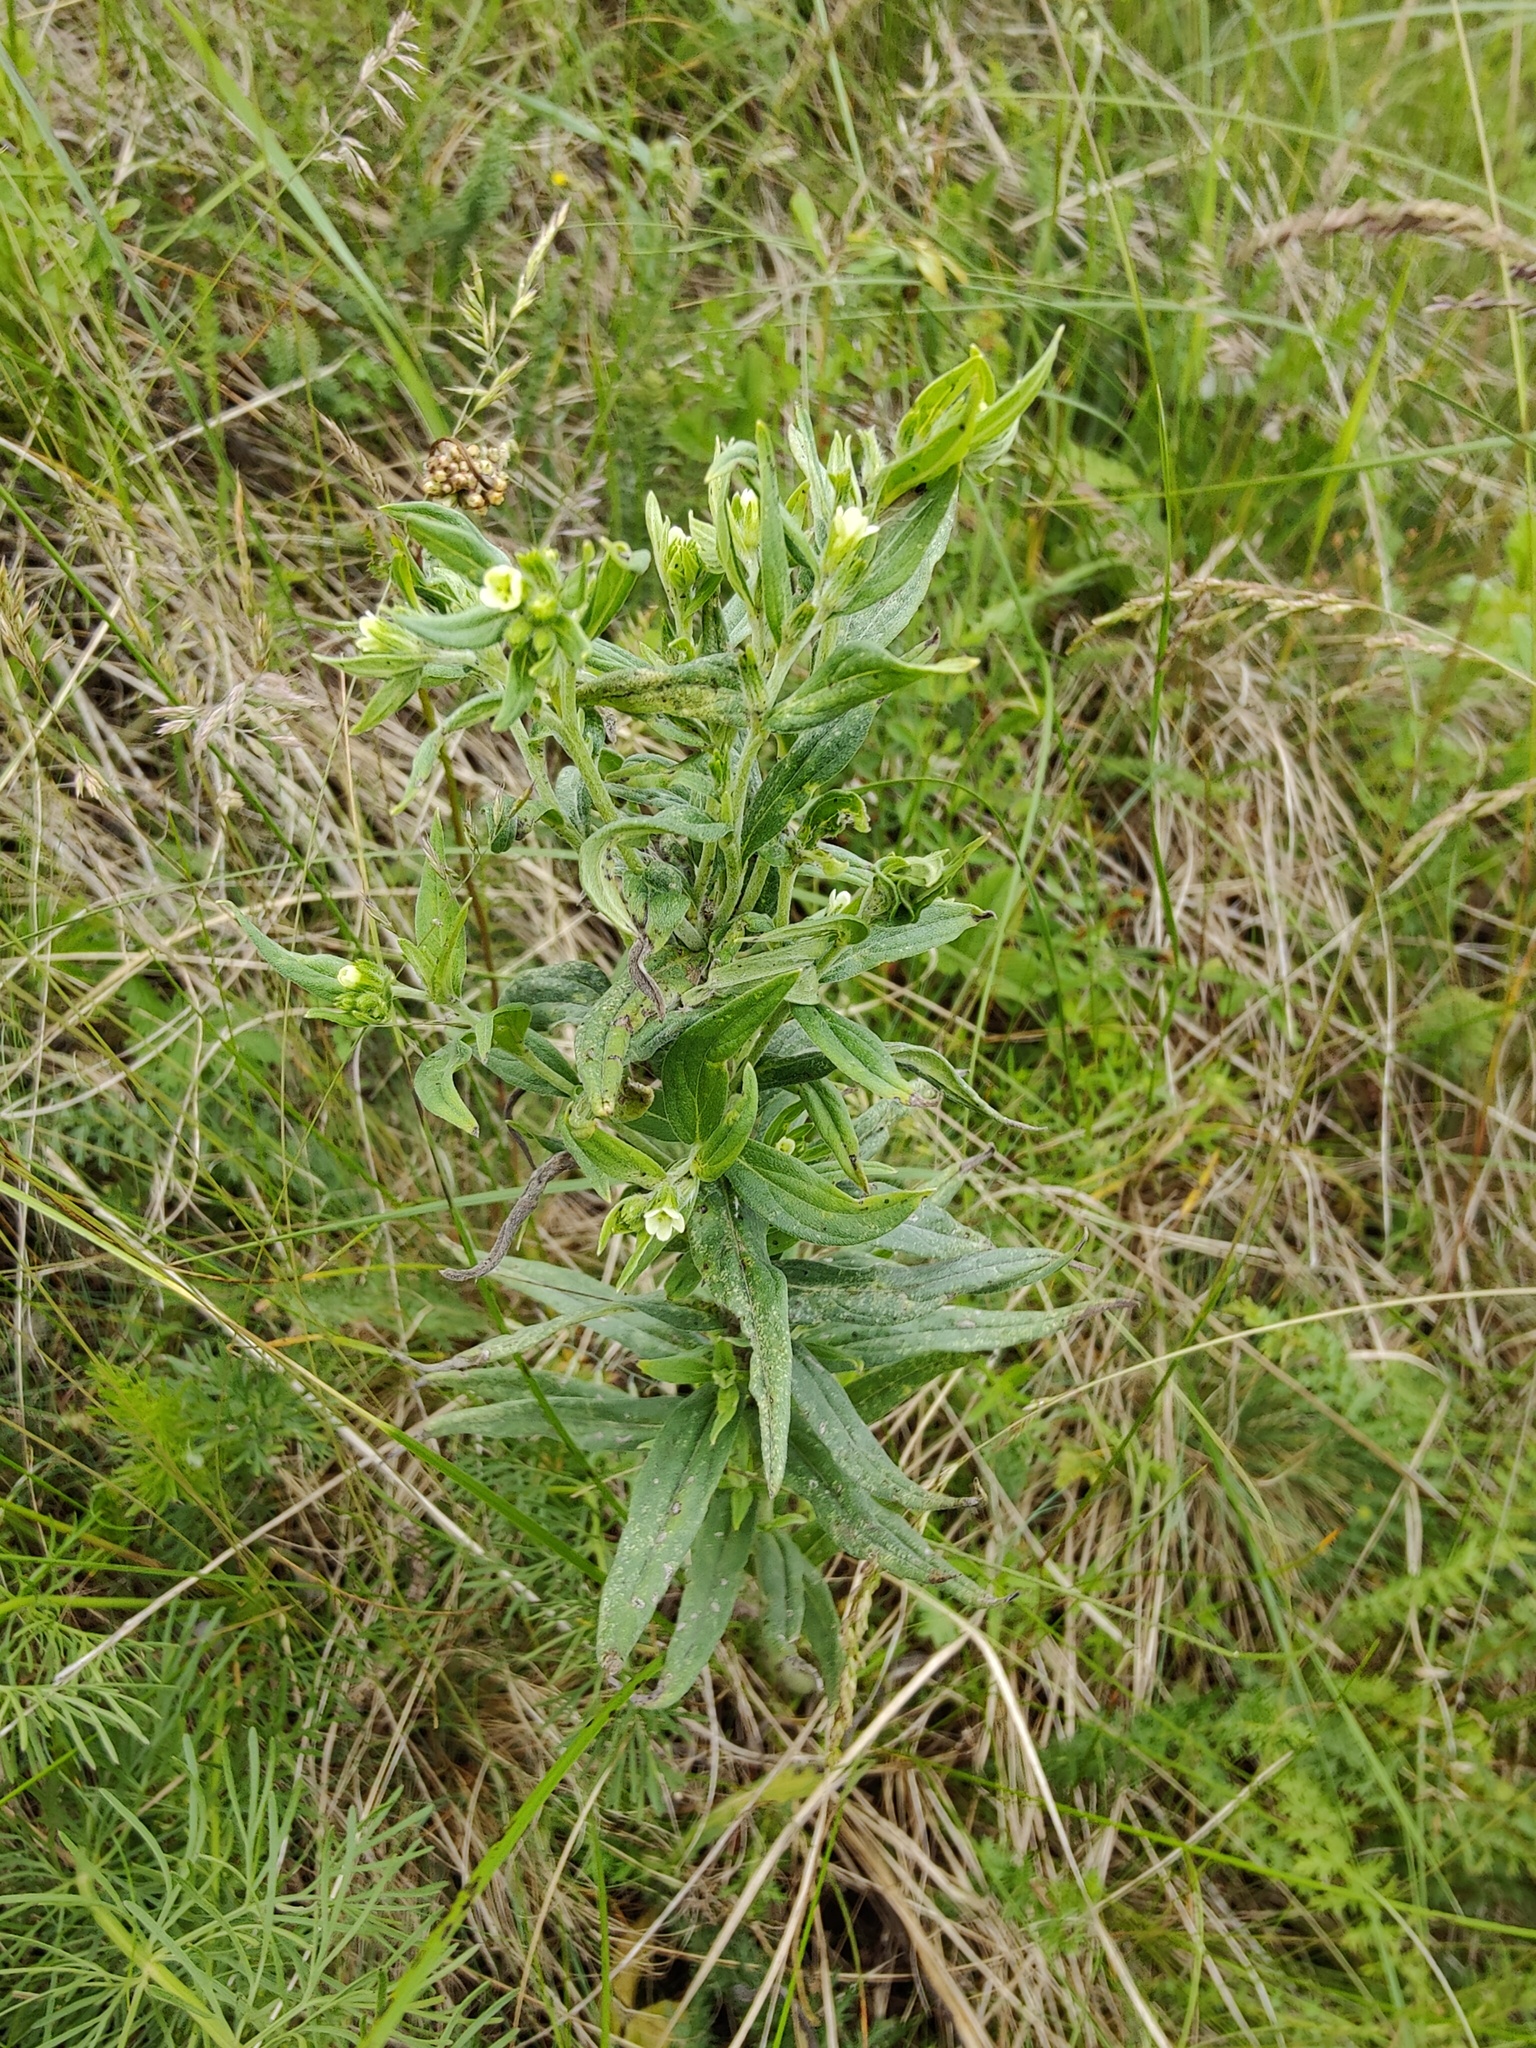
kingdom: Plantae
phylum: Tracheophyta
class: Magnoliopsida
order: Boraginales
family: Boraginaceae
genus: Lithospermum
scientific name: Lithospermum officinale
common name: Common gromwell
